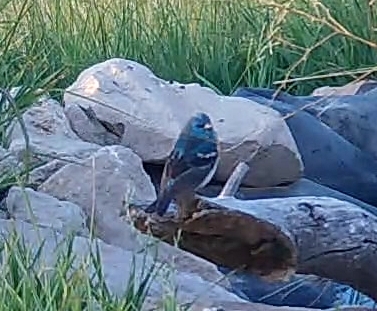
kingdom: Animalia
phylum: Chordata
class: Aves
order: Passeriformes
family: Cardinalidae
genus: Passerina
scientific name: Passerina amoena
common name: Lazuli bunting
